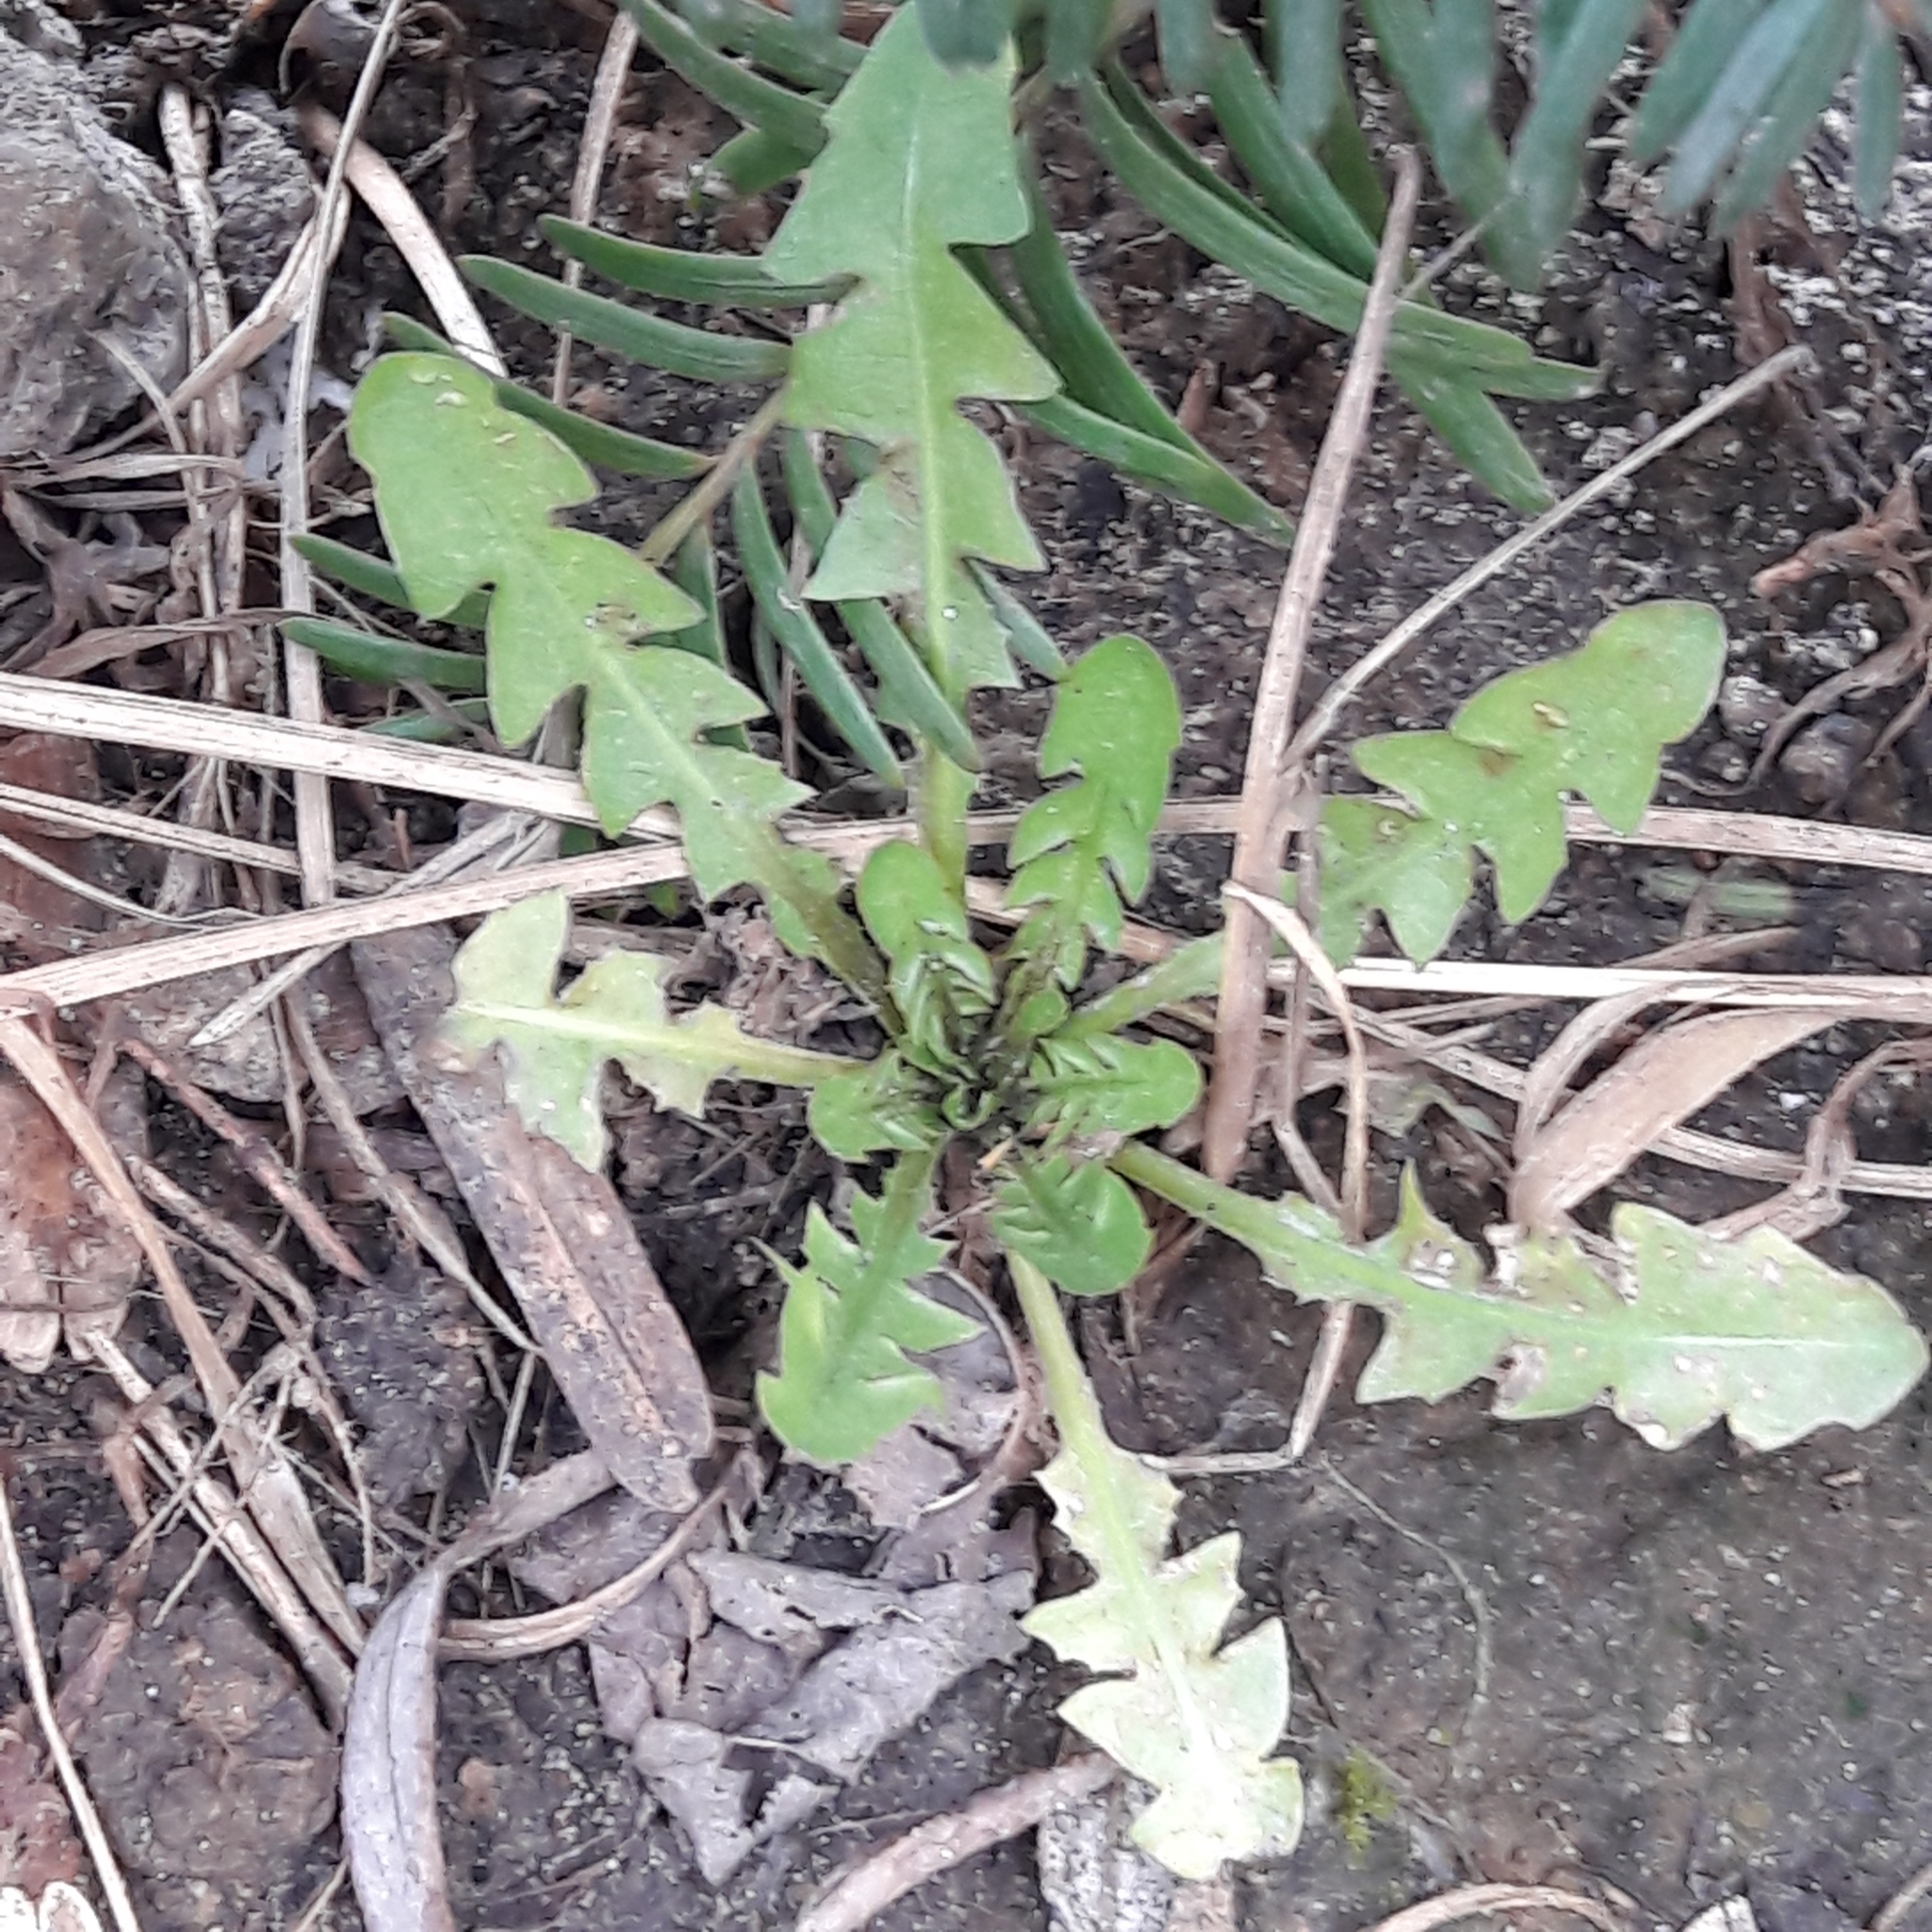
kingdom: Plantae
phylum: Tracheophyta
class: Magnoliopsida
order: Asterales
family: Asteraceae
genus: Taraxacum
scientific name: Taraxacum officinale
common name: Common dandelion
